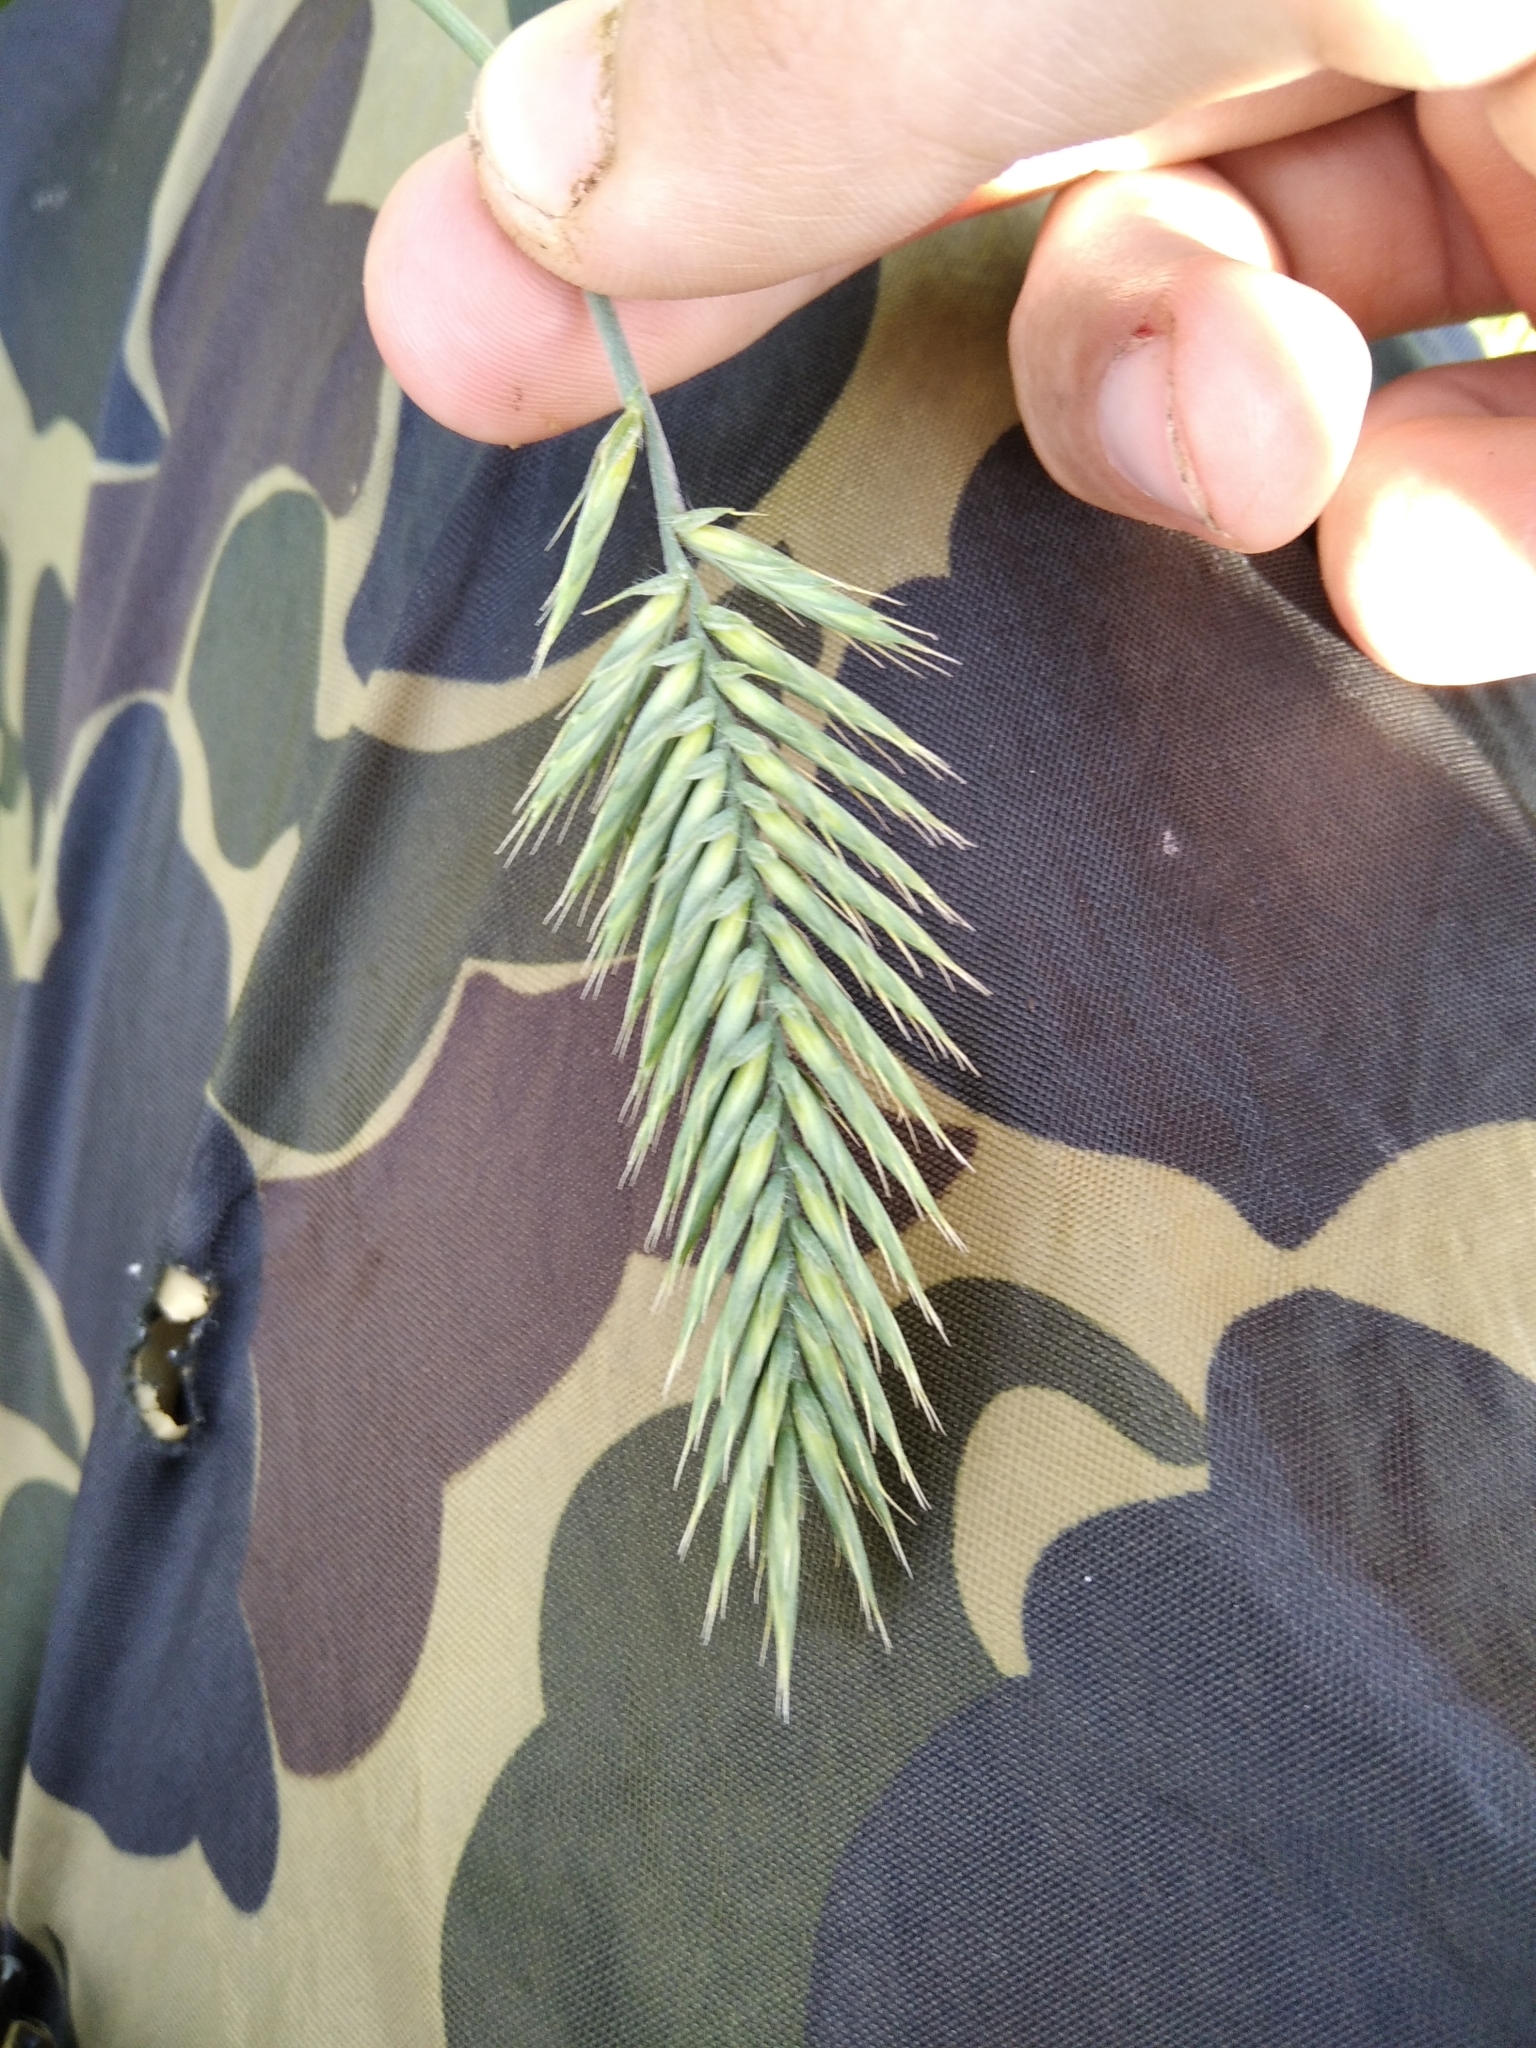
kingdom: Plantae
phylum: Tracheophyta
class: Liliopsida
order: Poales
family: Poaceae
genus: Agropyron
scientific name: Agropyron cristatum
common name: Crested wheatgrass
